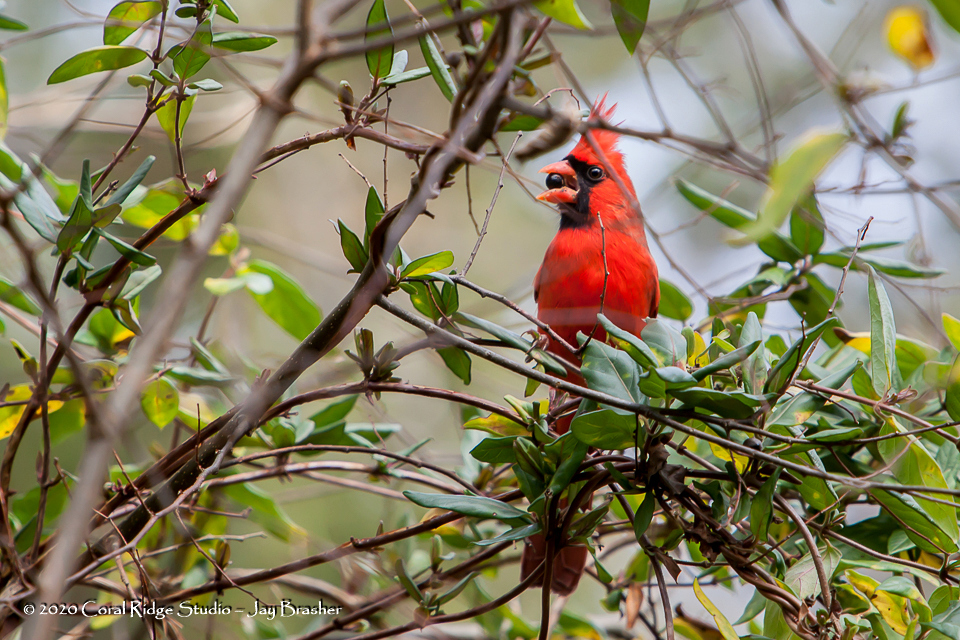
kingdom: Animalia
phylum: Chordata
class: Aves
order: Passeriformes
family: Cardinalidae
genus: Cardinalis
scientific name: Cardinalis cardinalis
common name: Northern cardinal
